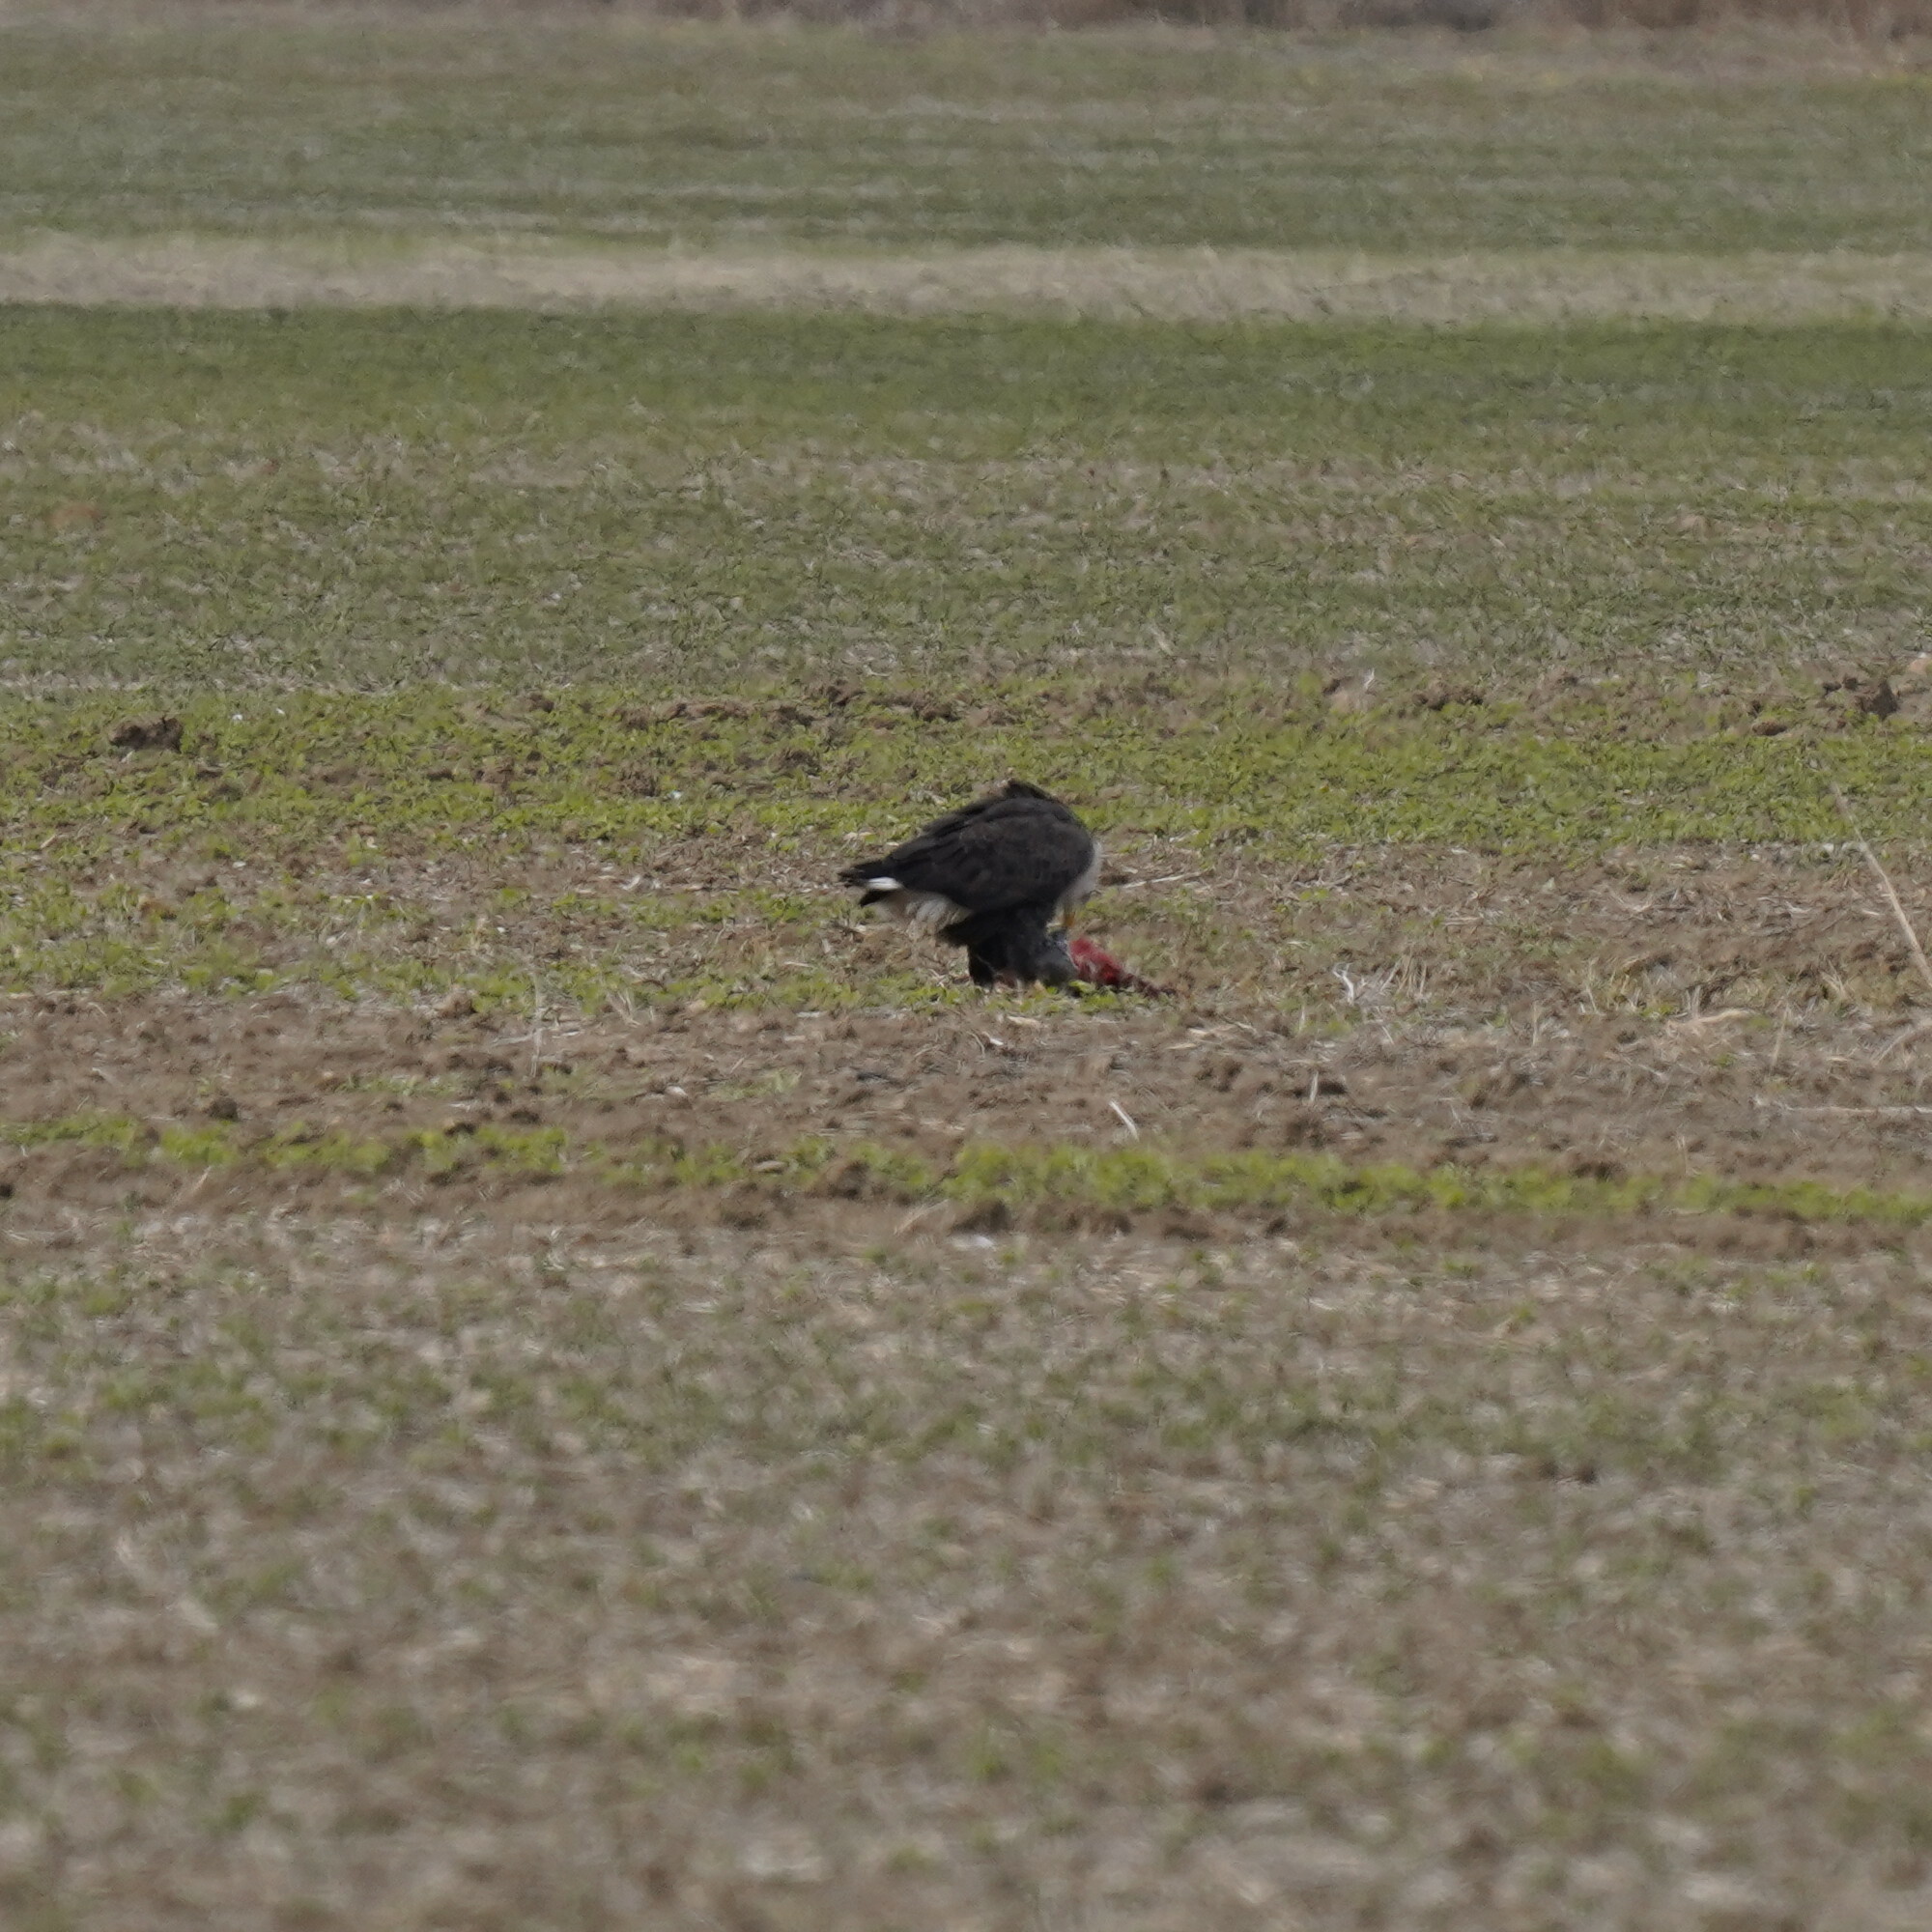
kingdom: Animalia
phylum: Chordata
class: Aves
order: Accipitriformes
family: Accipitridae
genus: Haliaeetus
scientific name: Haliaeetus leucocephalus
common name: Bald eagle
